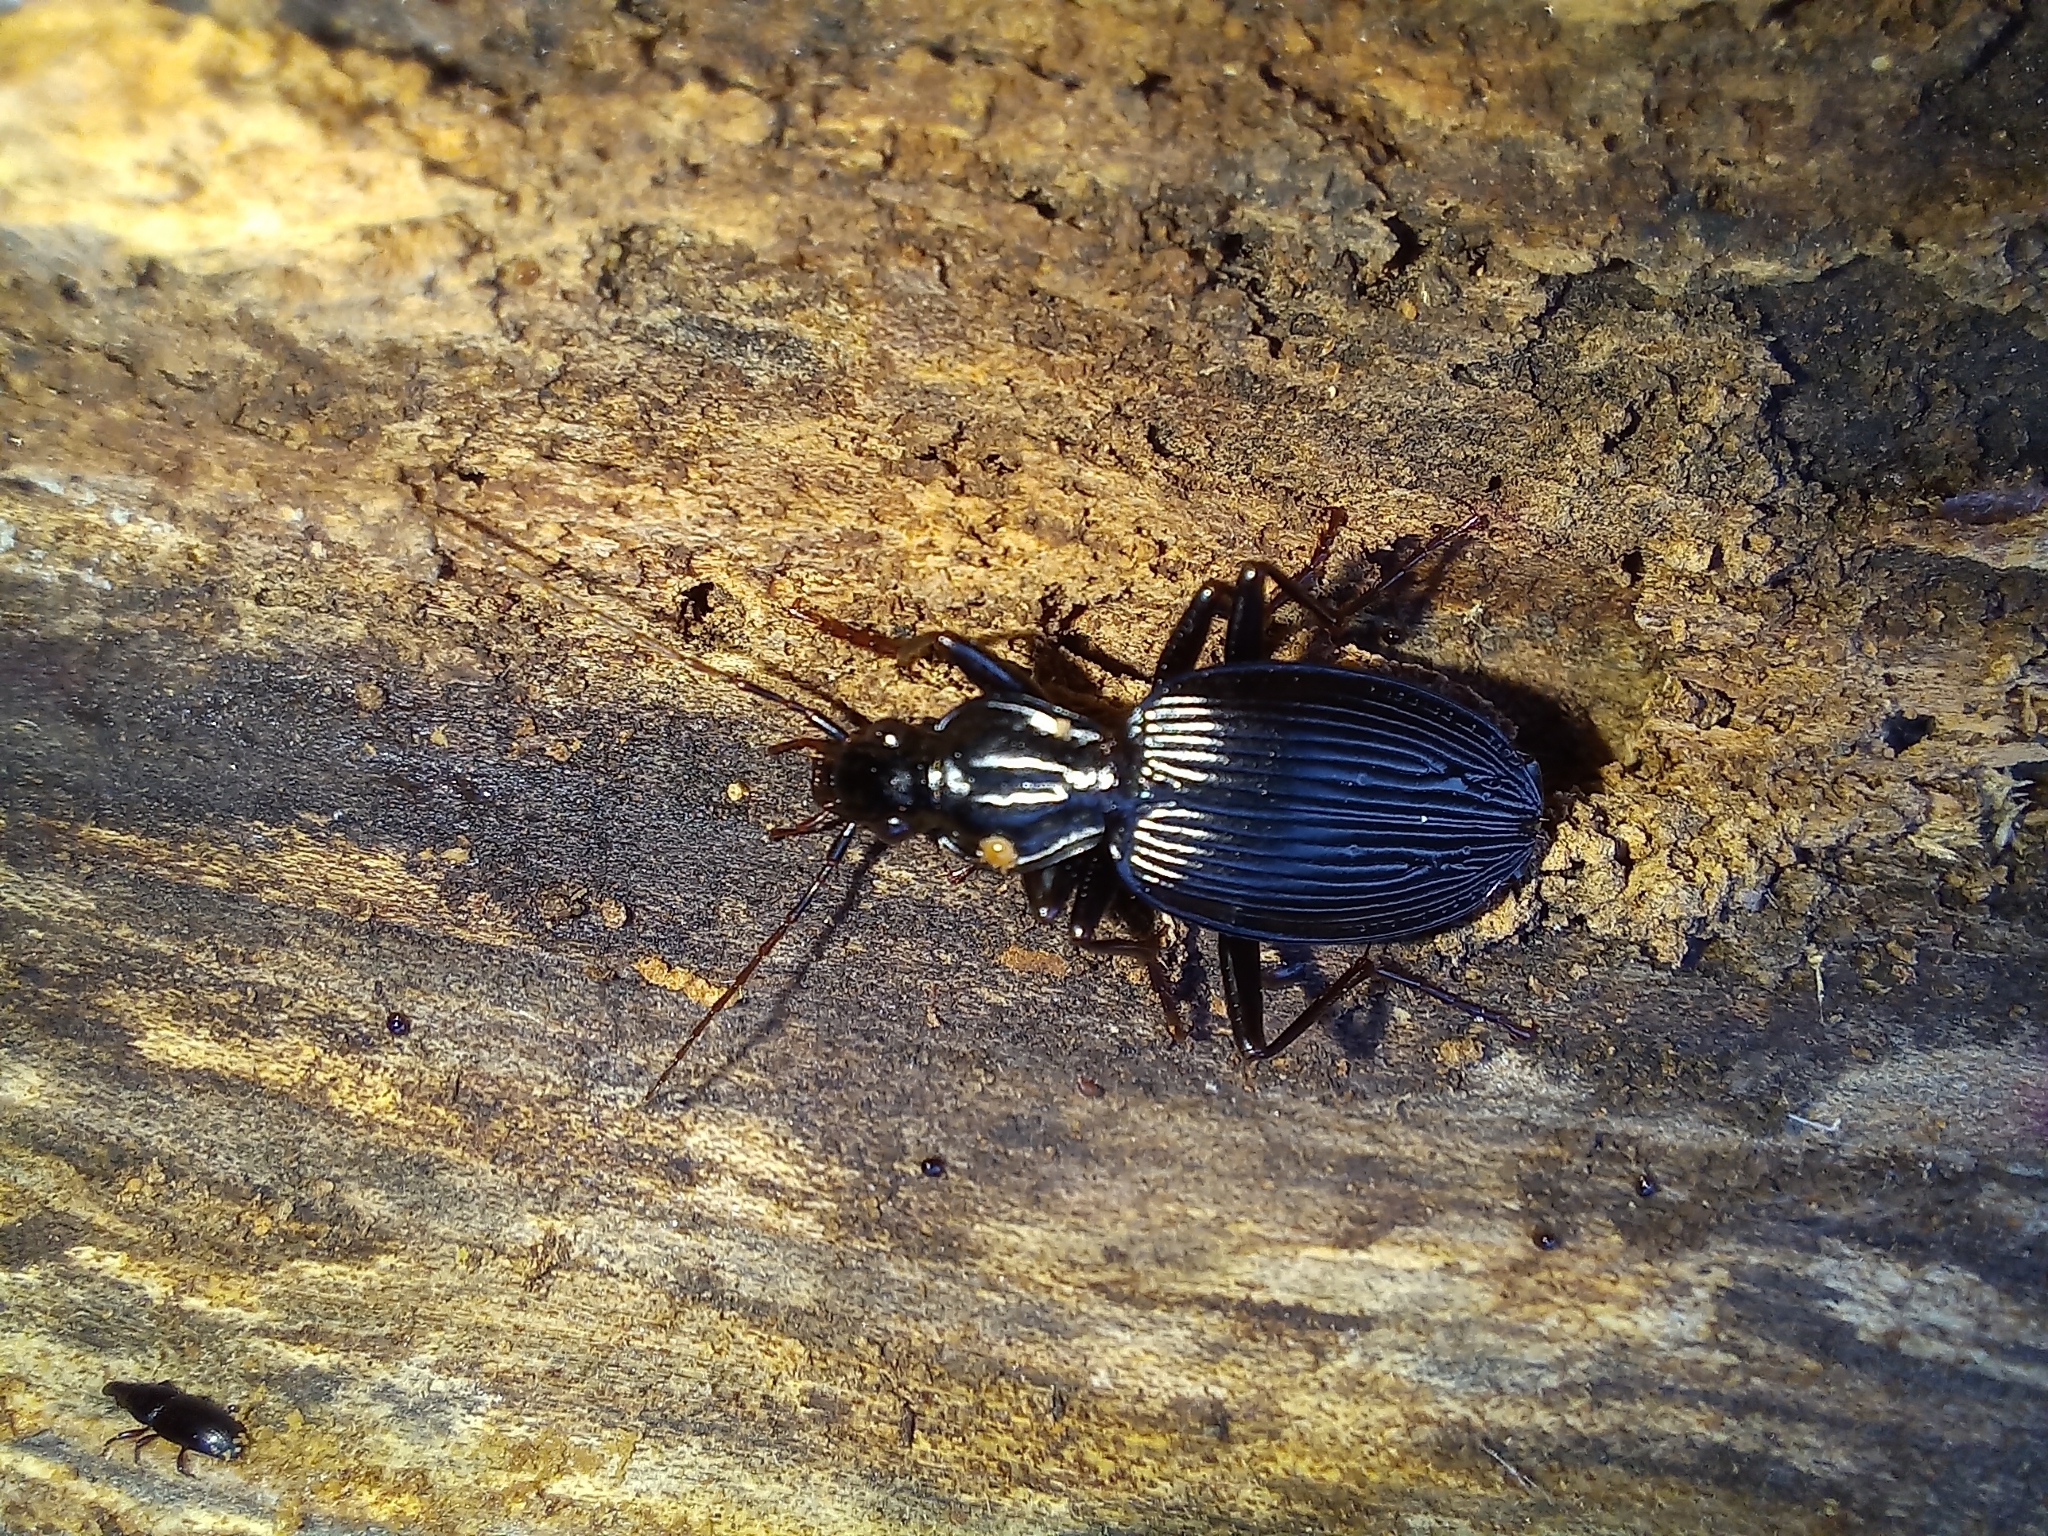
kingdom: Animalia
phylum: Arthropoda
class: Insecta
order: Coleoptera
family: Carabidae
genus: Kiwiplatynus
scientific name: Kiwiplatynus bidens
